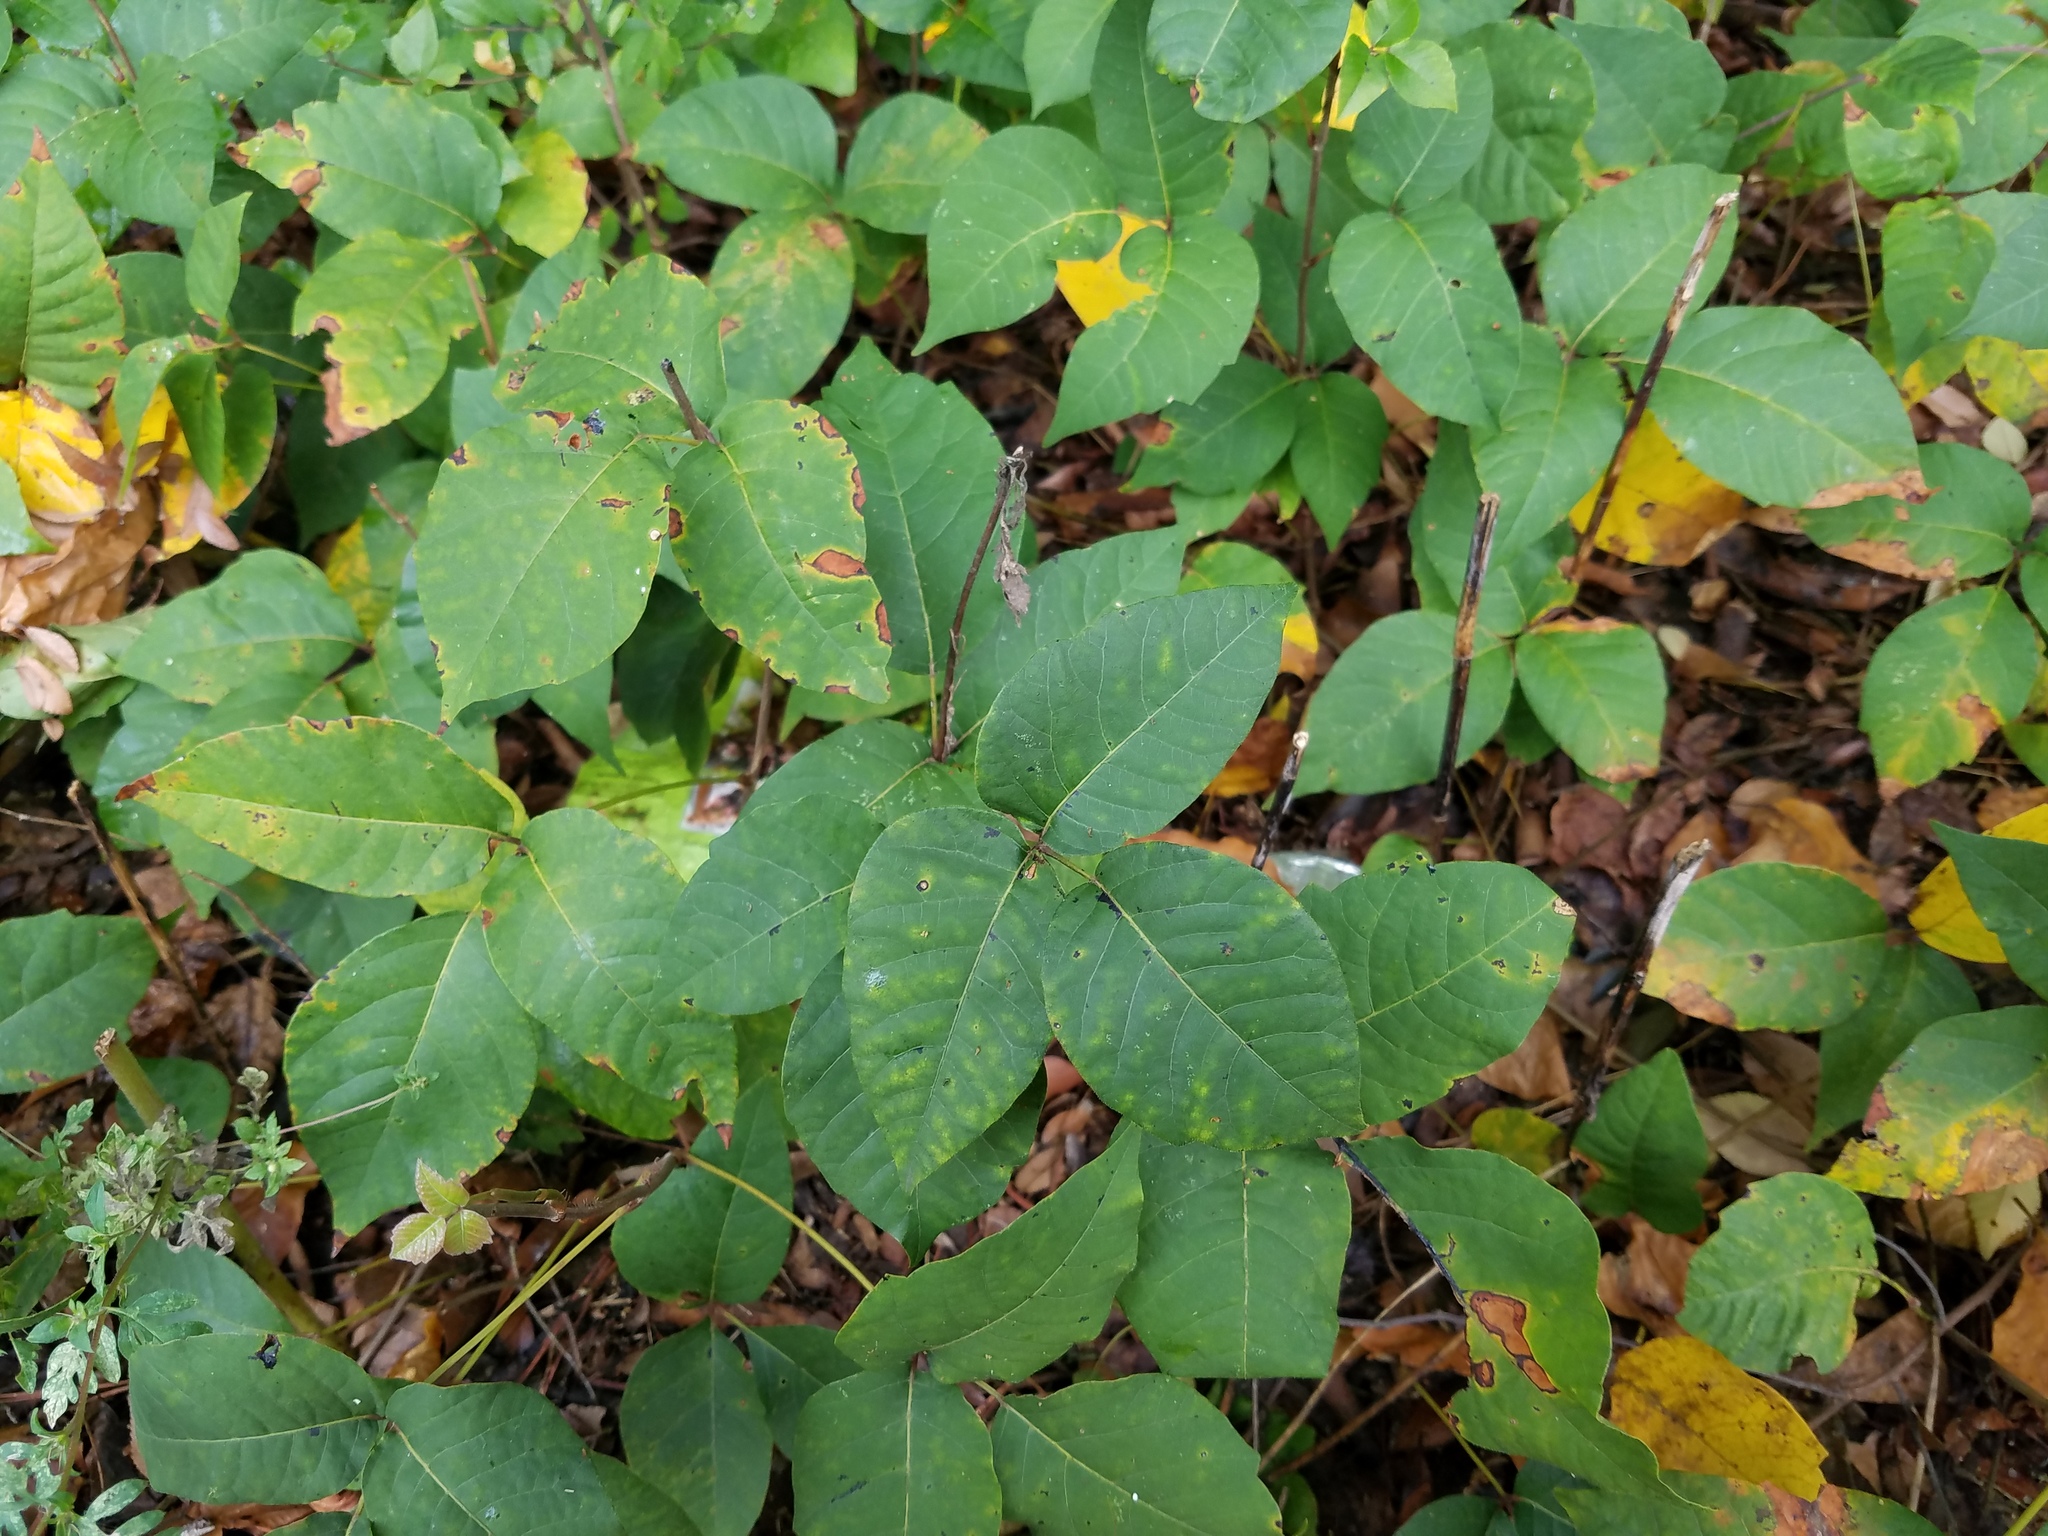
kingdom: Plantae
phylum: Tracheophyta
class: Magnoliopsida
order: Sapindales
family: Anacardiaceae
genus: Toxicodendron
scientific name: Toxicodendron radicans
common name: Poison ivy
